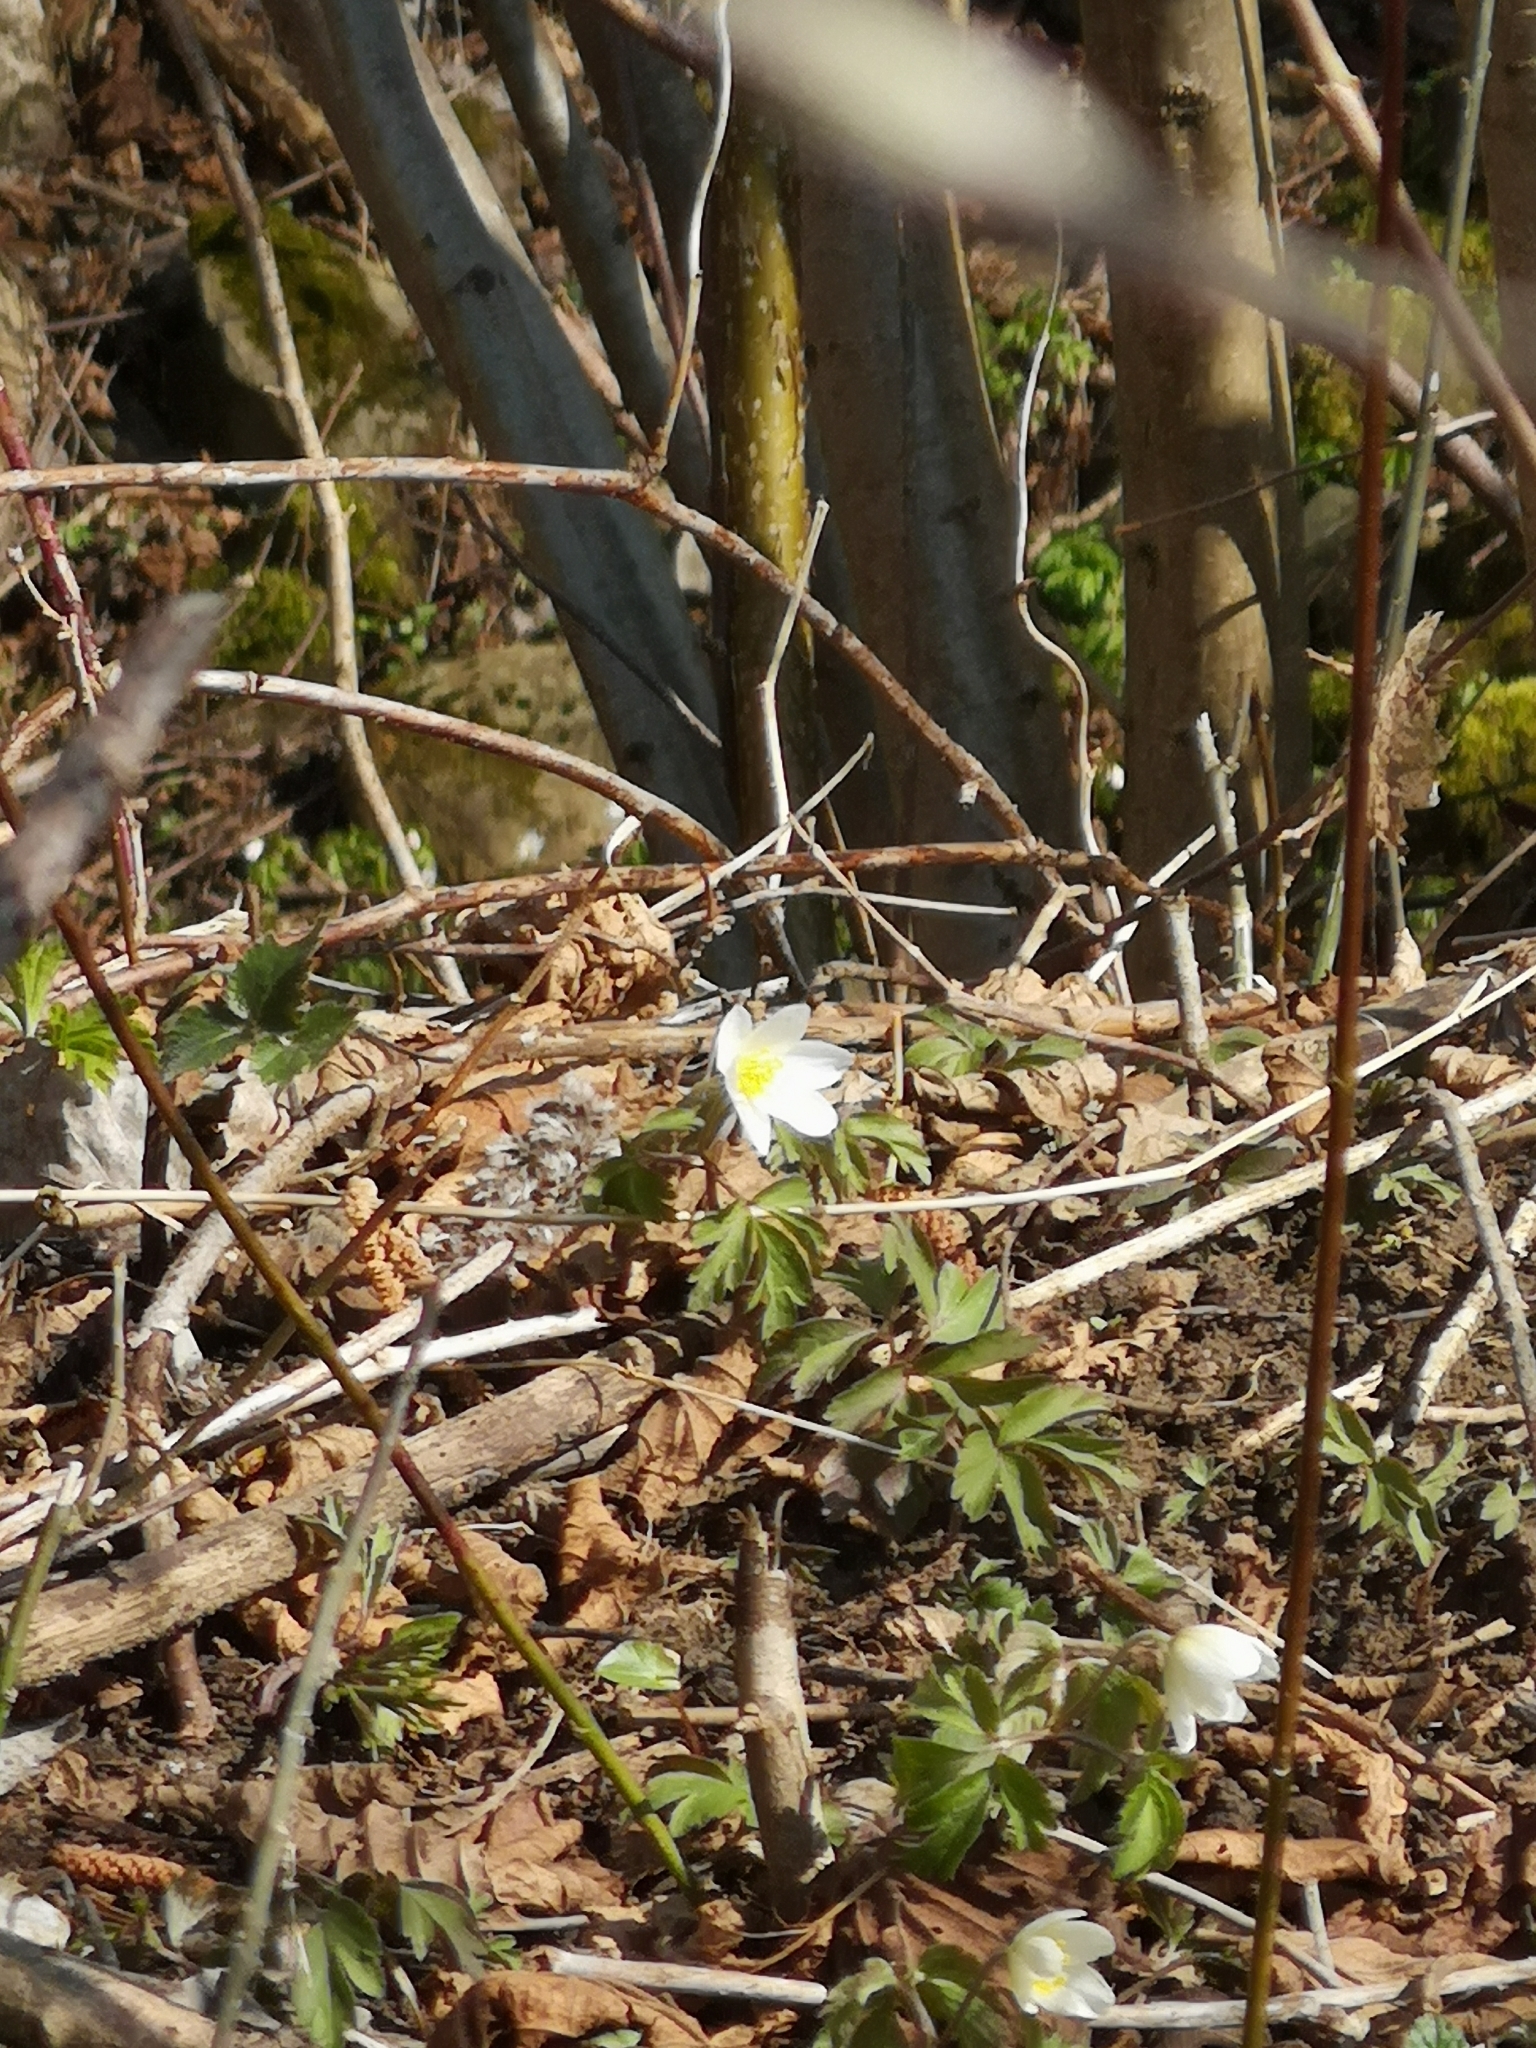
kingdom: Plantae
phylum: Tracheophyta
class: Magnoliopsida
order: Ranunculales
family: Ranunculaceae
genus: Anemone
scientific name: Anemone nemorosa
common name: Wood anemone
